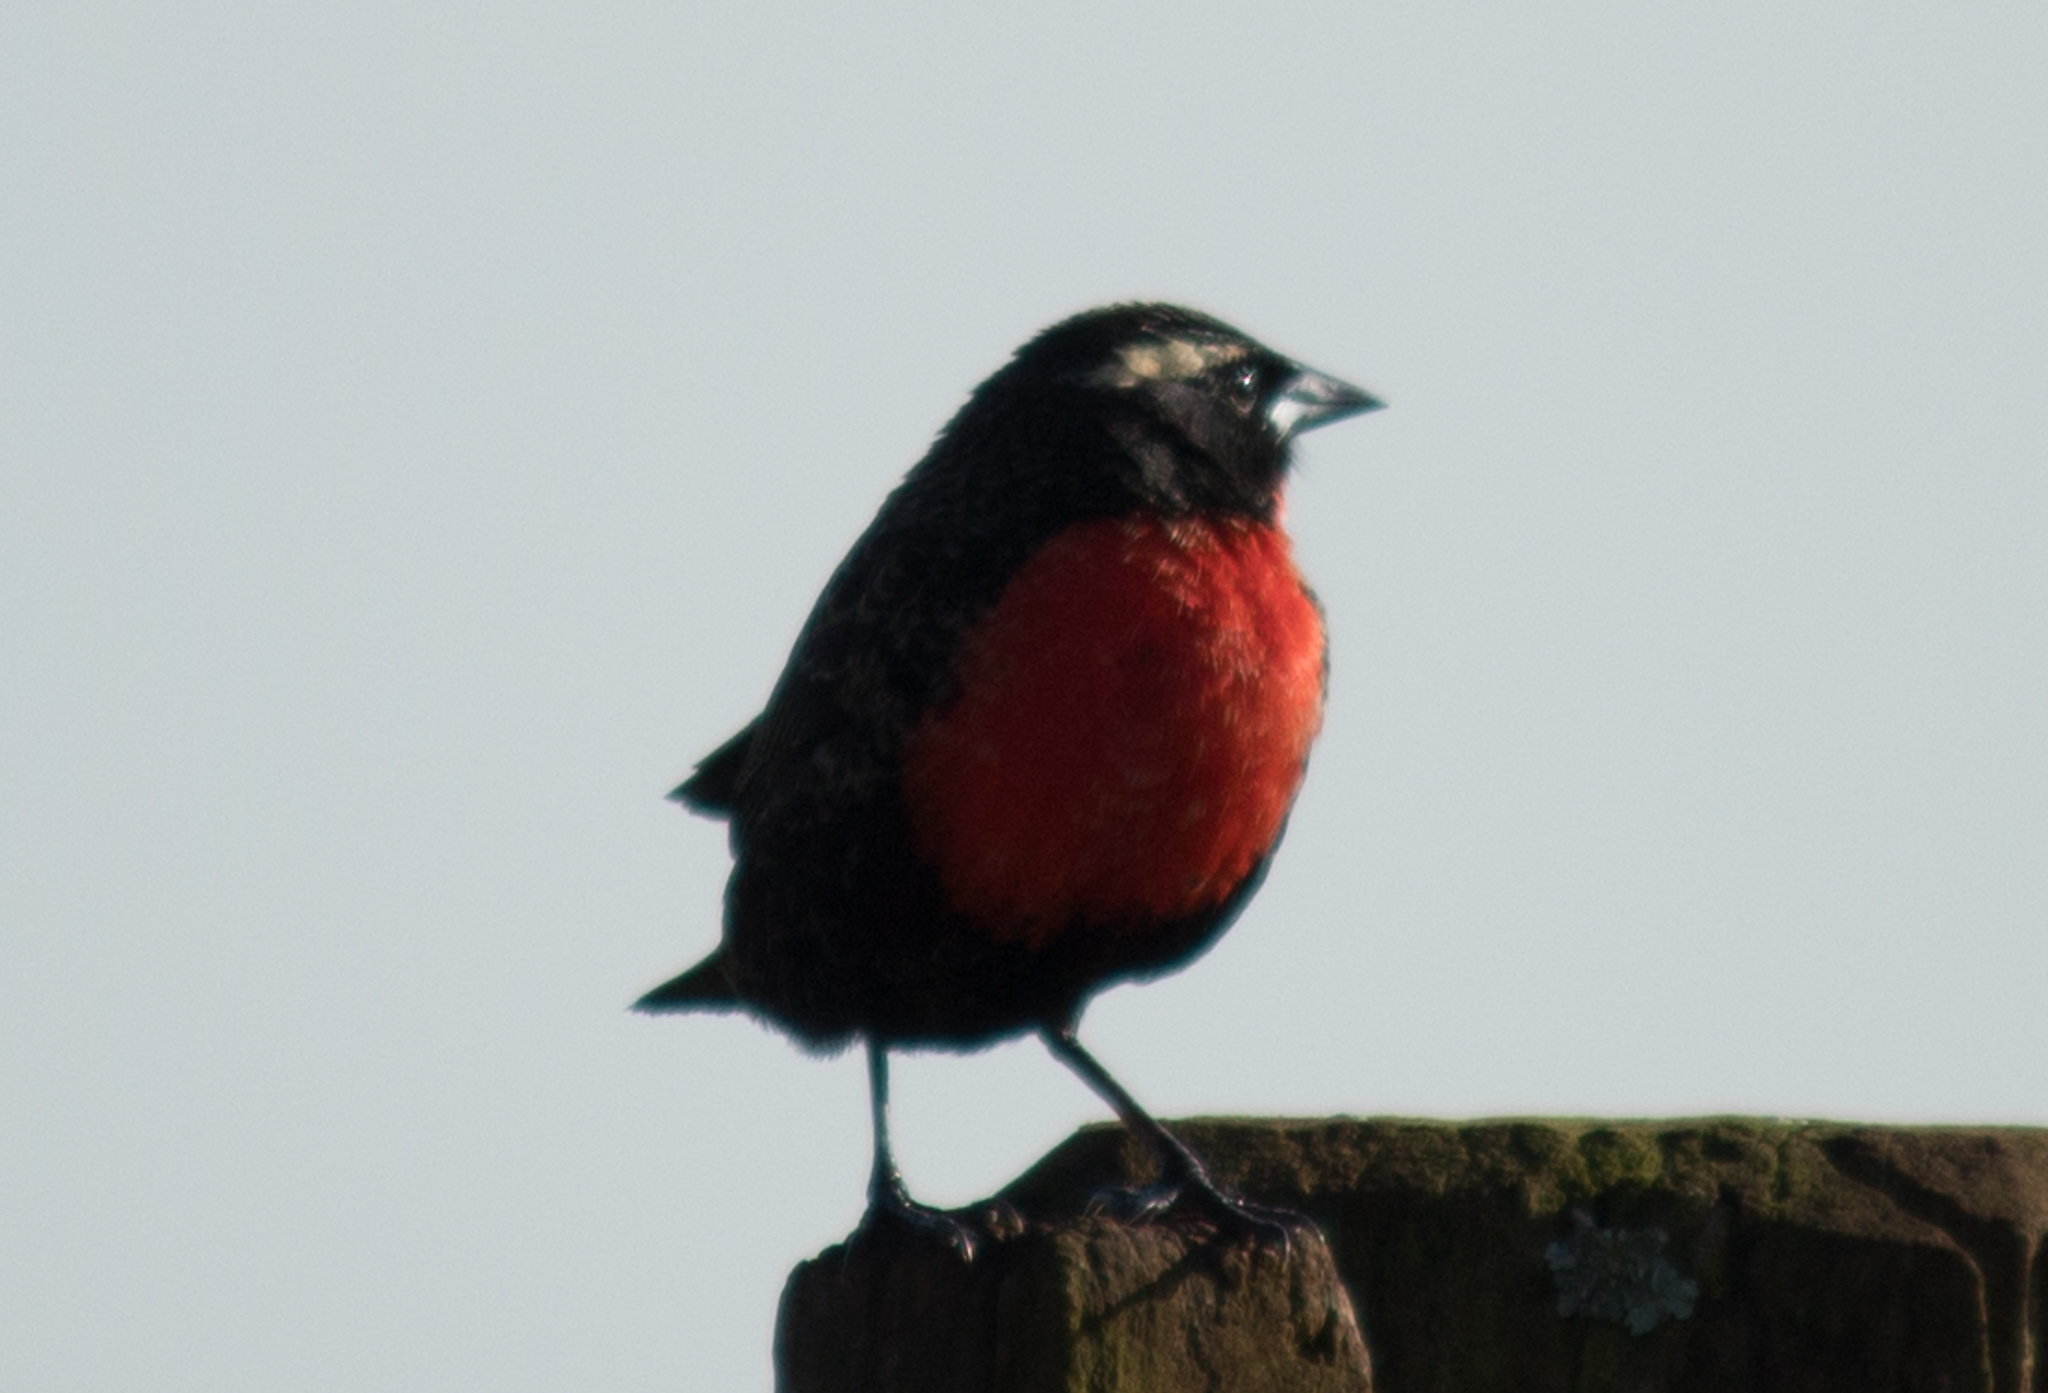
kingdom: Animalia
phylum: Chordata
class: Aves
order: Passeriformes
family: Icteridae
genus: Sturnella
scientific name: Sturnella superciliaris
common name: White-browed blackbird
